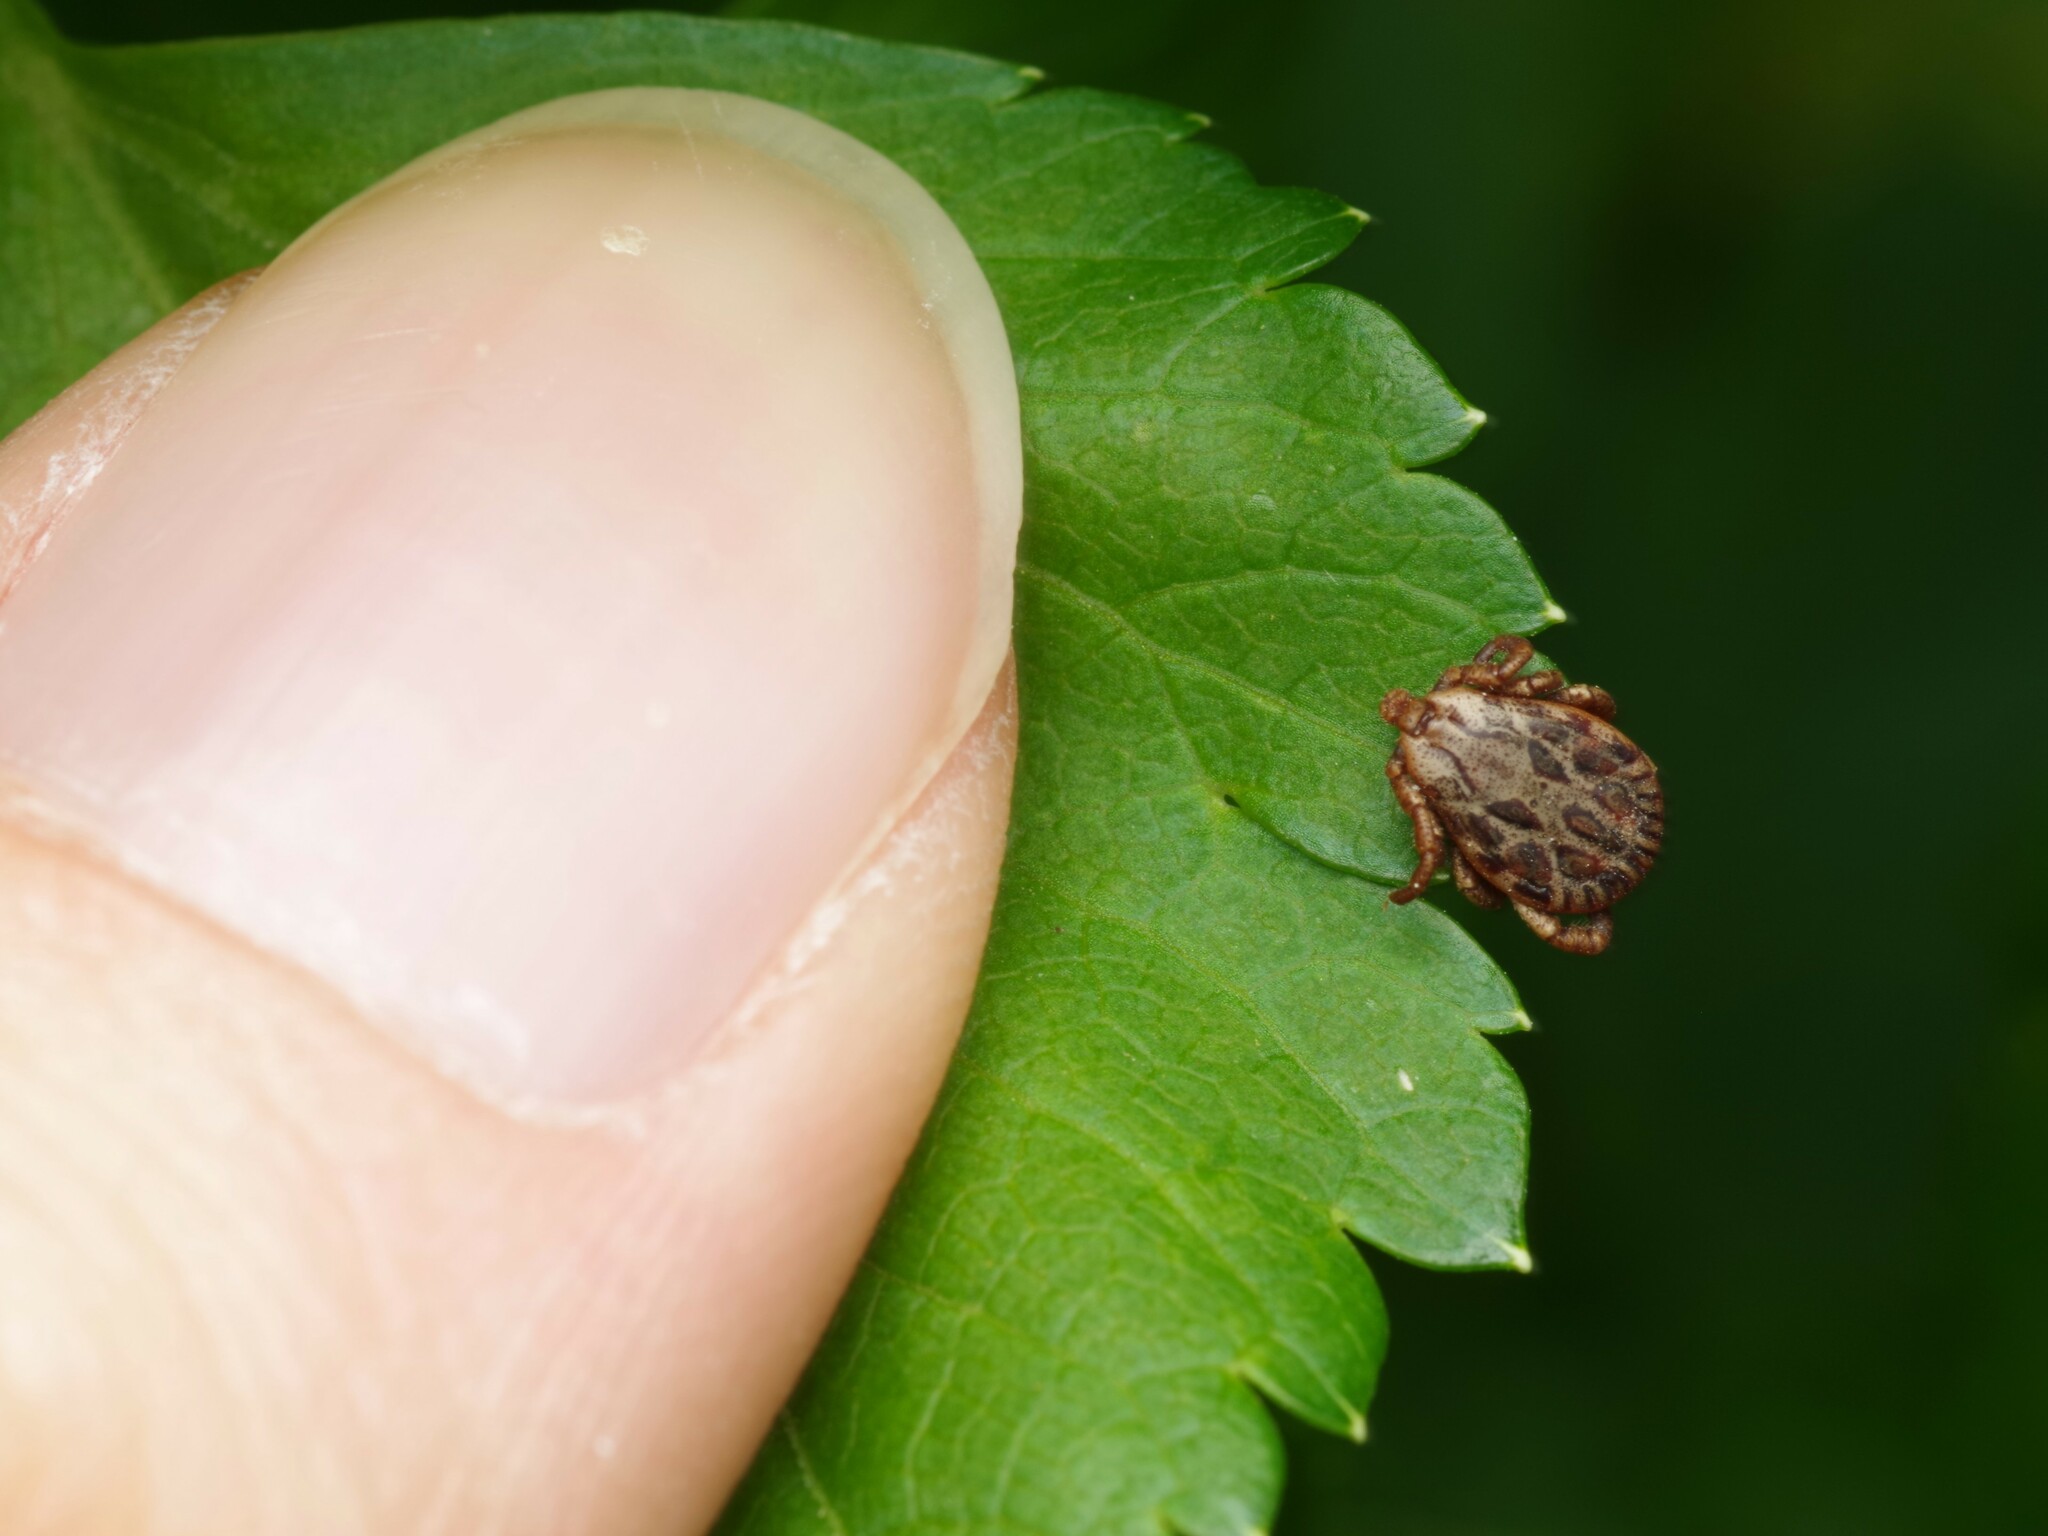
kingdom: Animalia
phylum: Arthropoda
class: Arachnida
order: Ixodida
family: Ixodidae
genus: Dermacentor
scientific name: Dermacentor marginatus
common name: Ornate sheep tick
